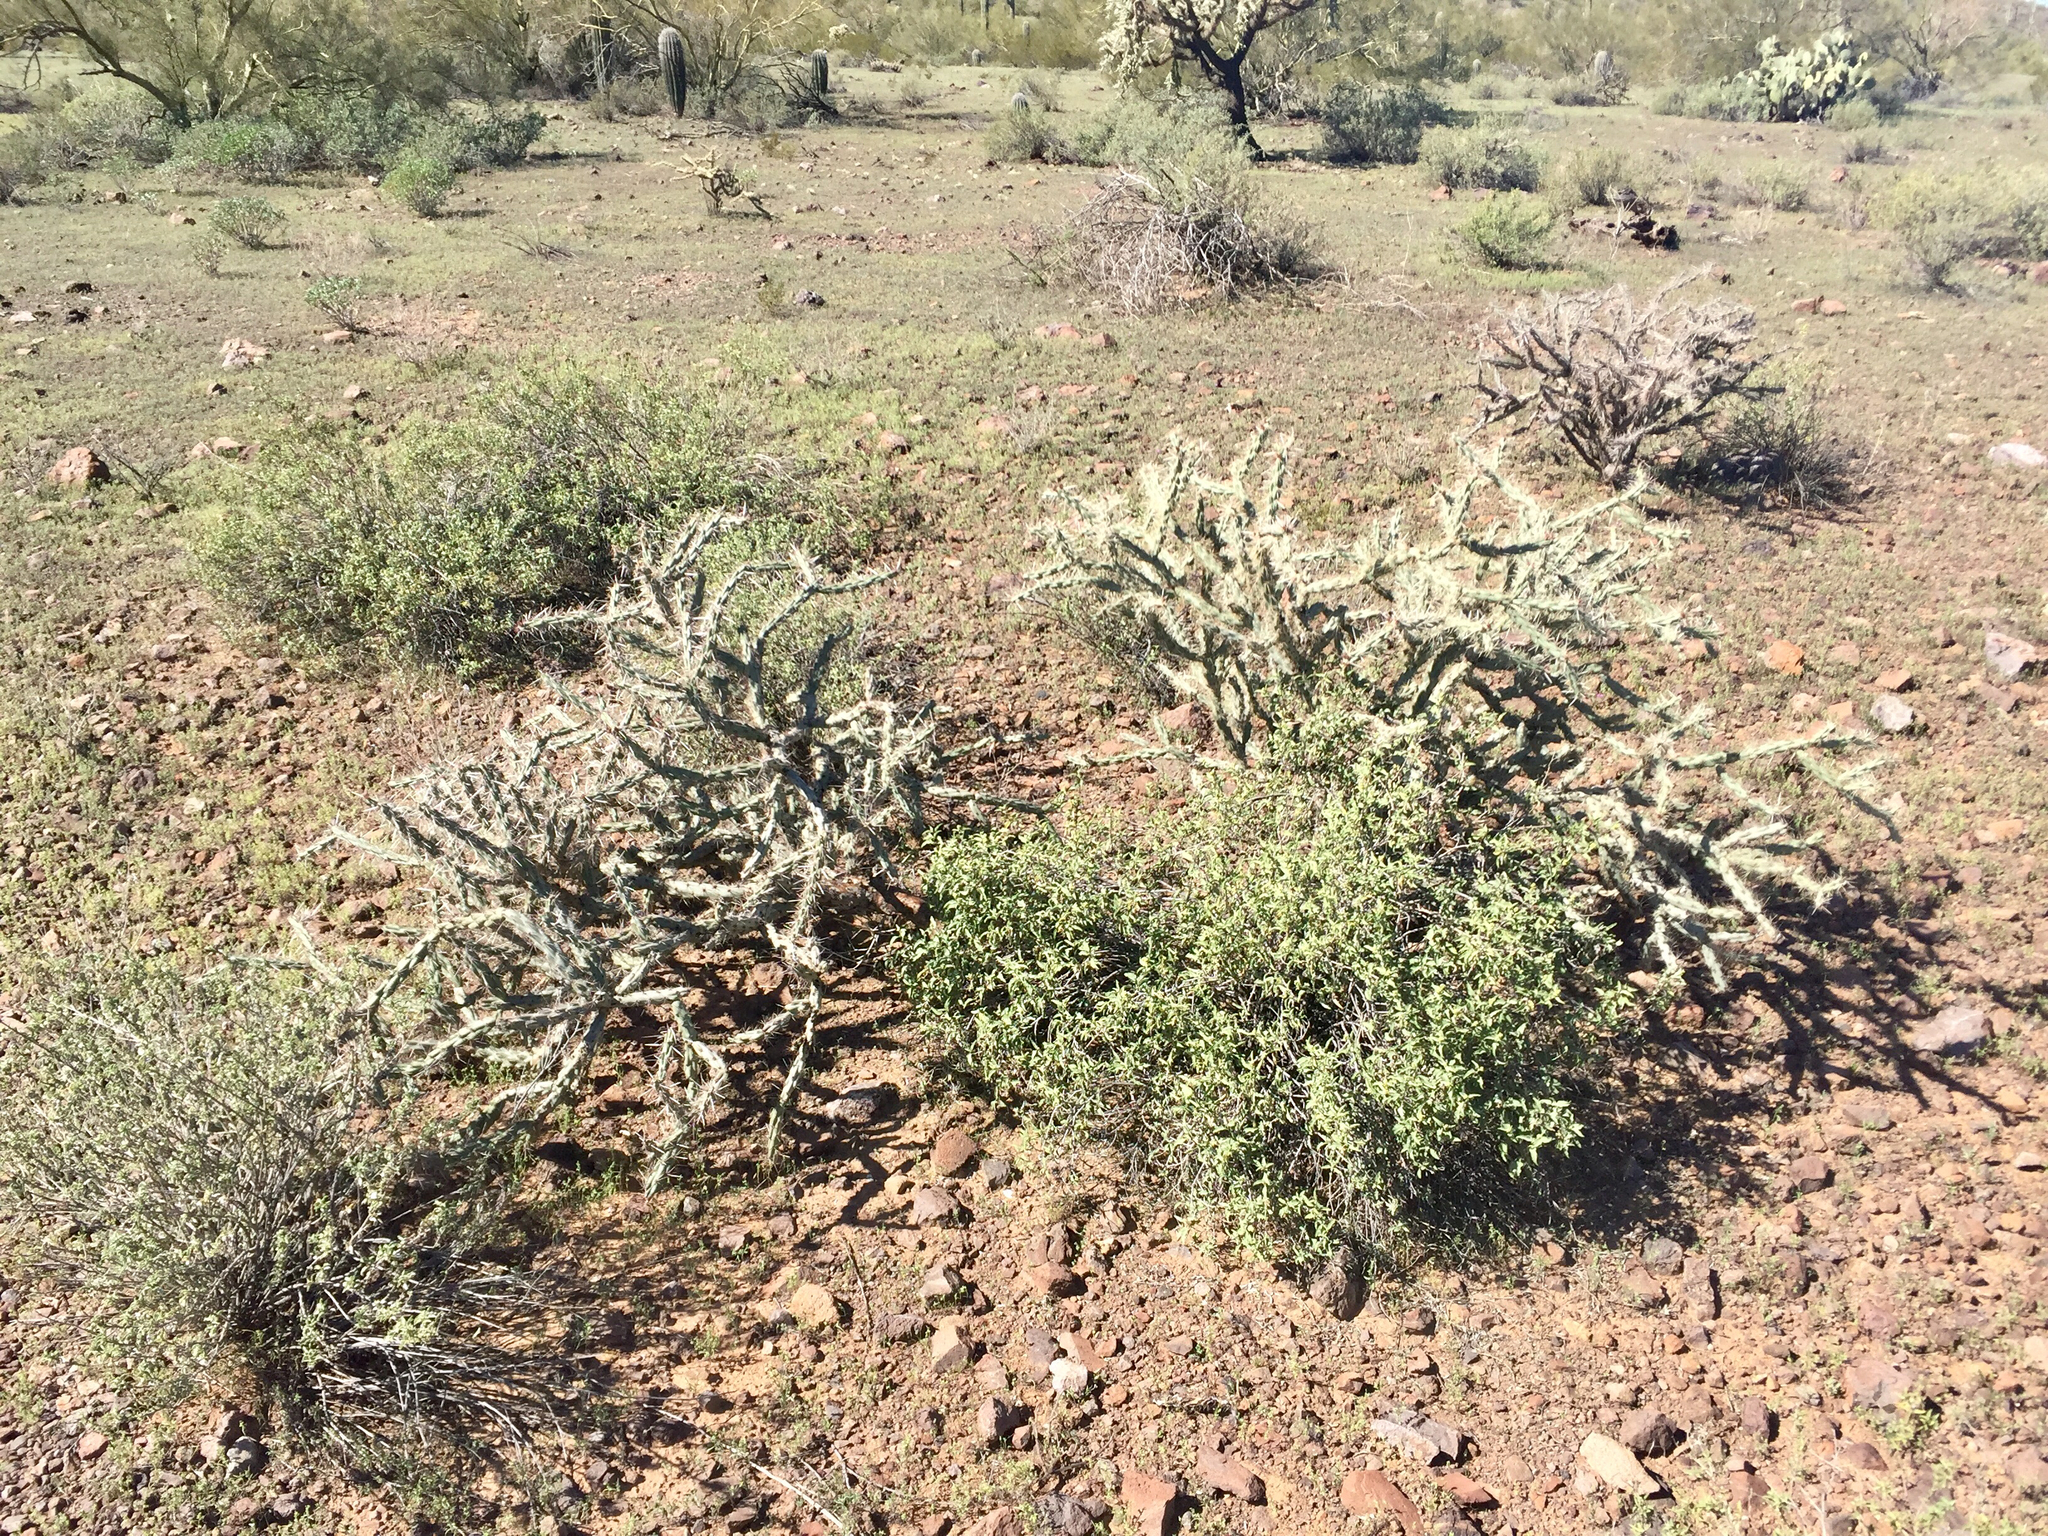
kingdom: Plantae
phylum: Tracheophyta
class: Magnoliopsida
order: Caryophyllales
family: Cactaceae
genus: Cylindropuntia
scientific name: Cylindropuntia acanthocarpa
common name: Buckhorn cholla
